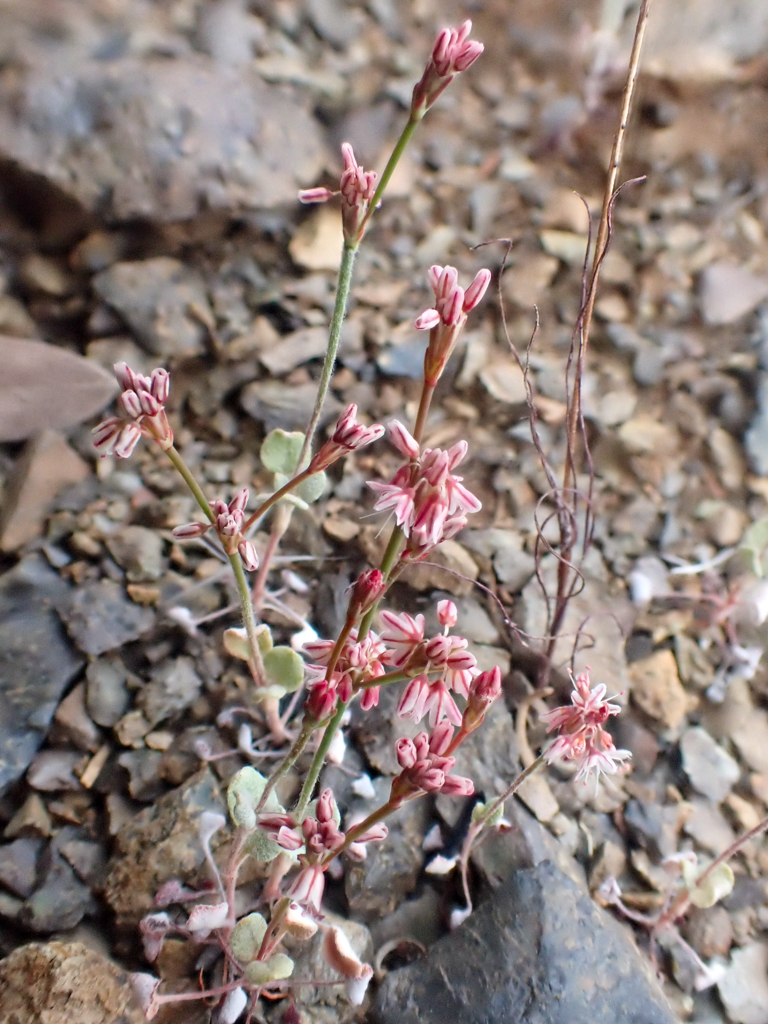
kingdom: Plantae
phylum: Tracheophyta
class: Magnoliopsida
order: Caryophyllales
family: Polygonaceae
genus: Eriogonum
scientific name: Eriogonum luteolum
